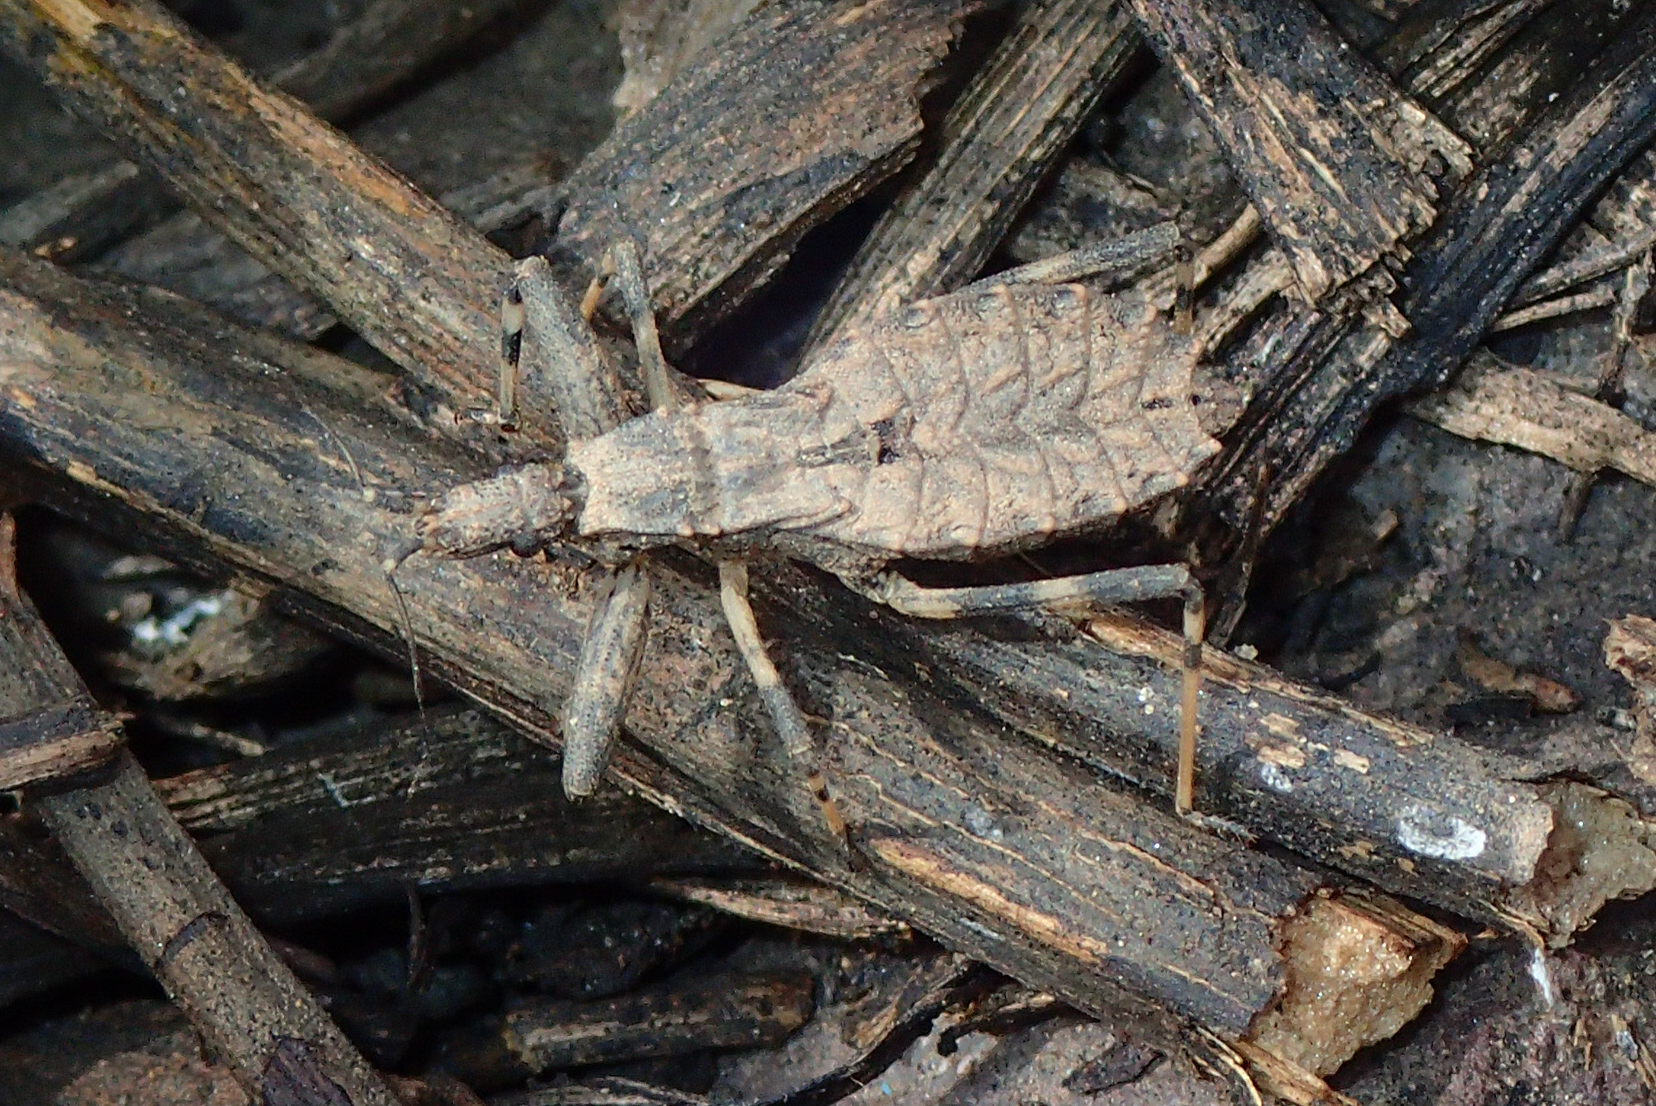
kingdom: Animalia
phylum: Arthropoda
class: Insecta
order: Hemiptera
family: Reduviidae
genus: Oncocephalus
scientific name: Oncocephalus pilicornis
